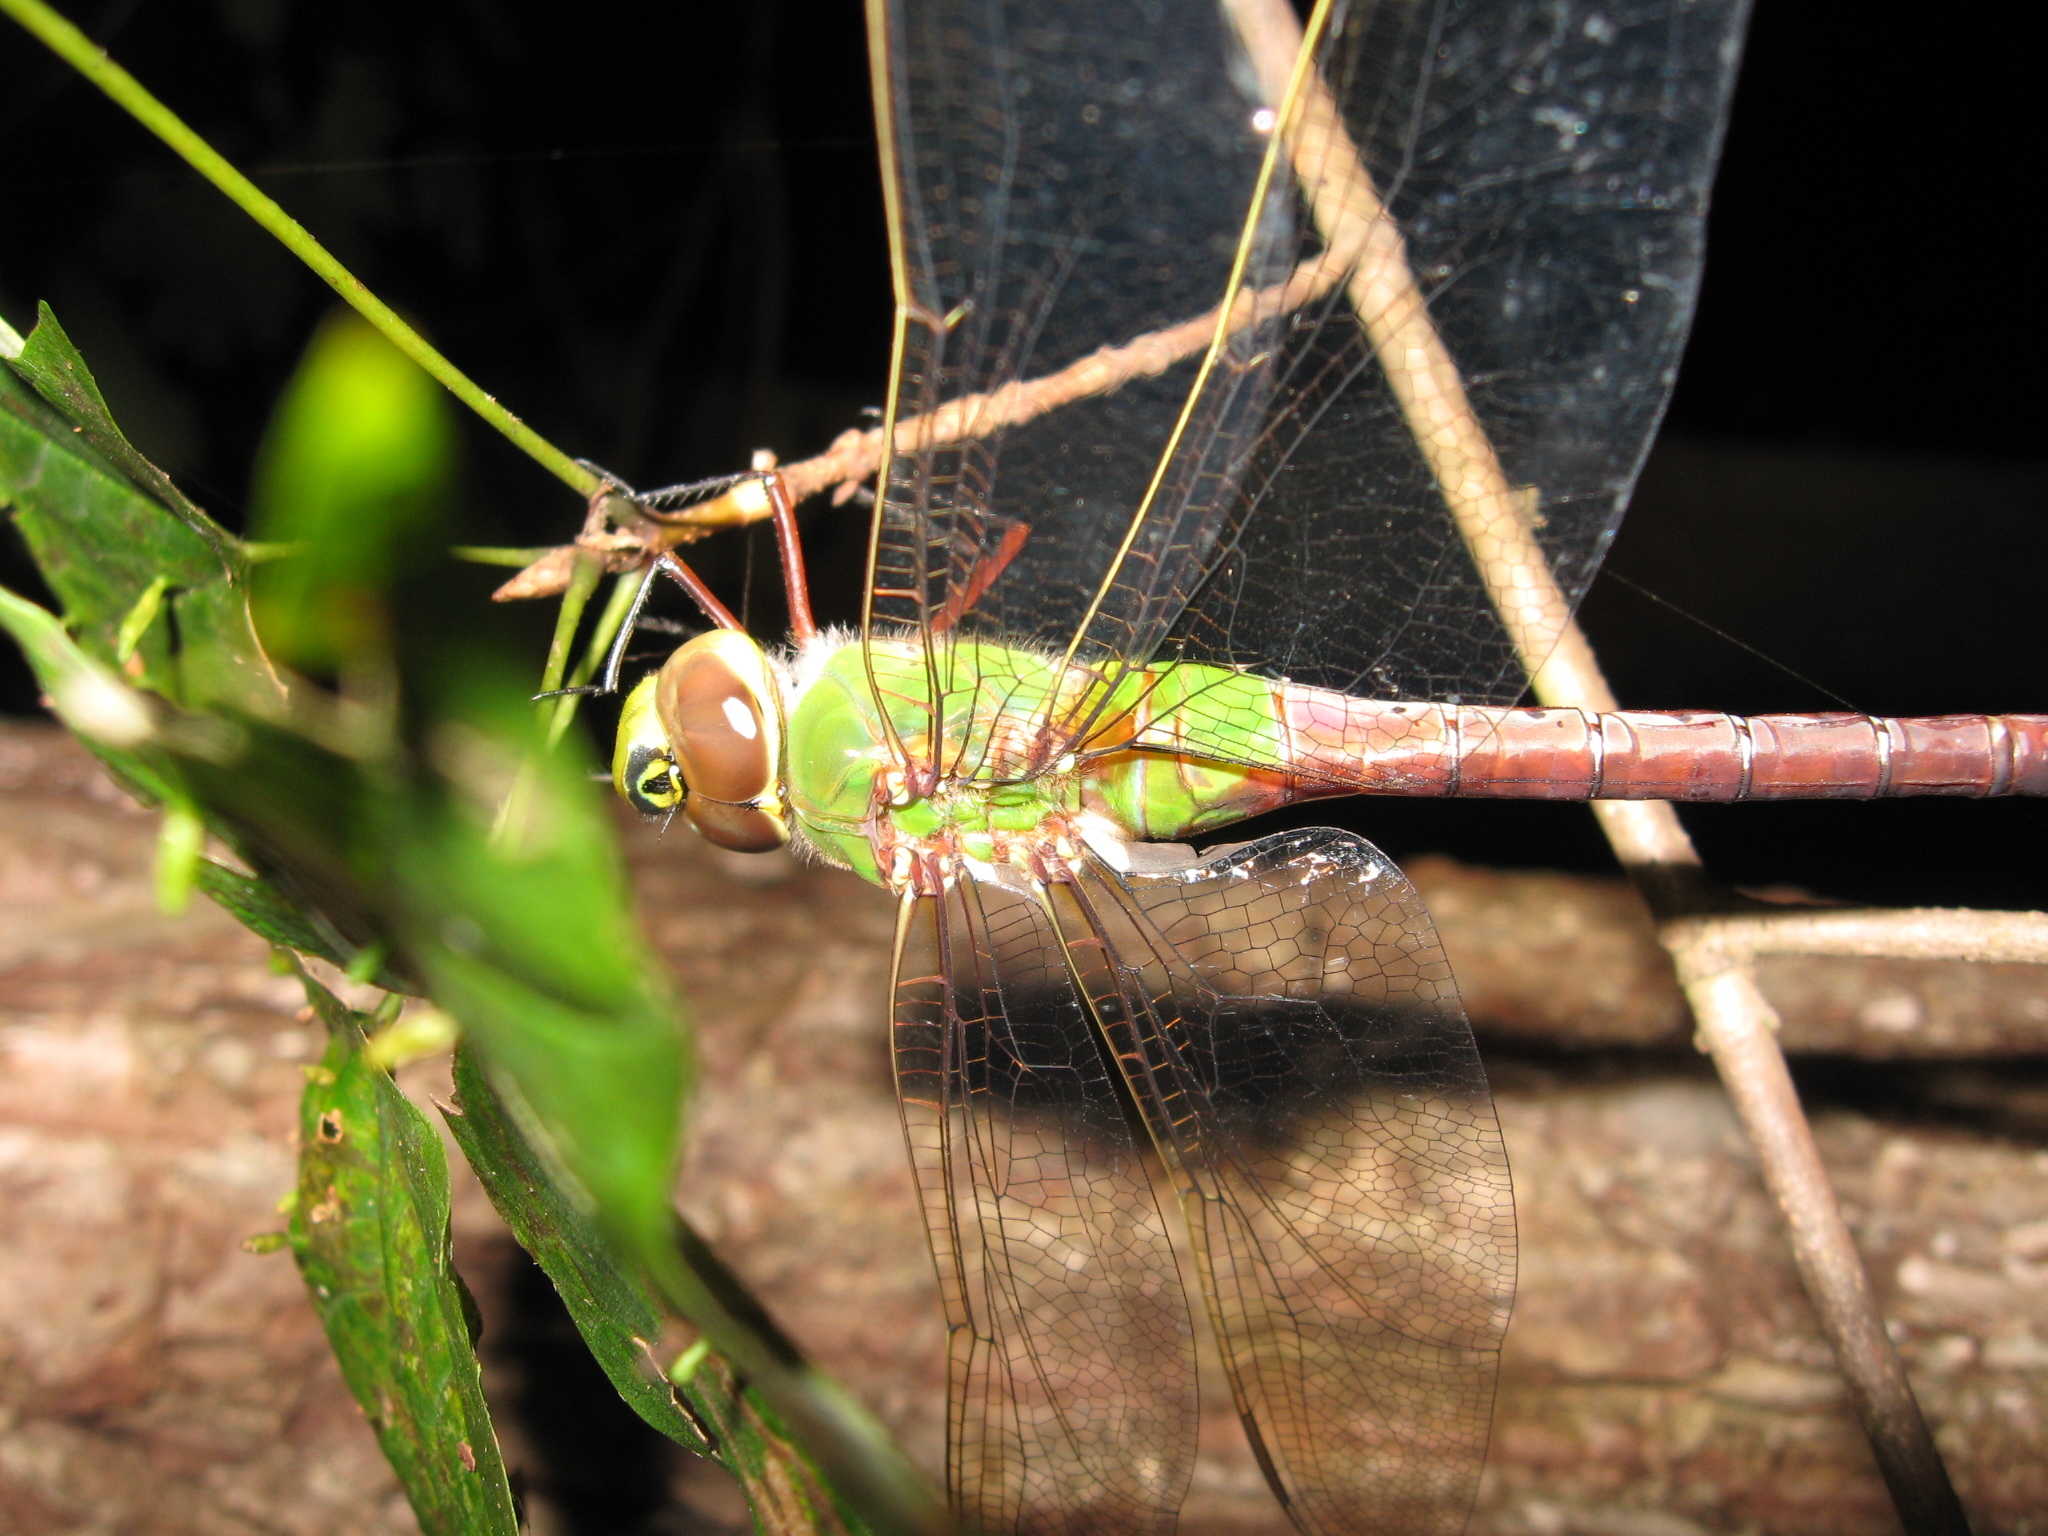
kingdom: Animalia
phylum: Arthropoda
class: Insecta
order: Odonata
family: Aeshnidae
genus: Anax
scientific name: Anax junius
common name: Common green darner
